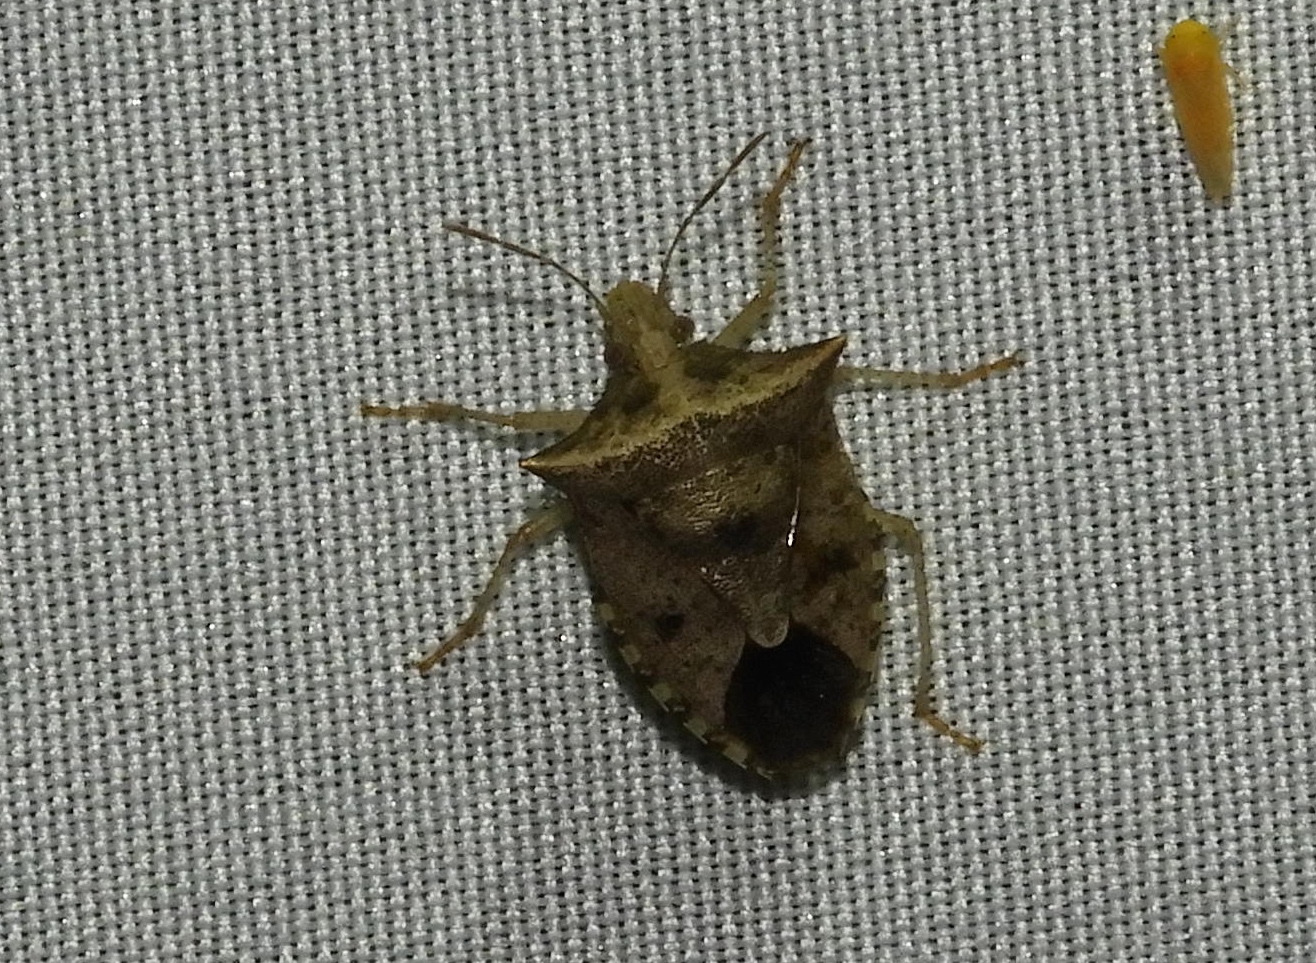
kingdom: Animalia
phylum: Arthropoda
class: Insecta
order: Hemiptera
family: Pentatomidae
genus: Euschistus
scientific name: Euschistus
